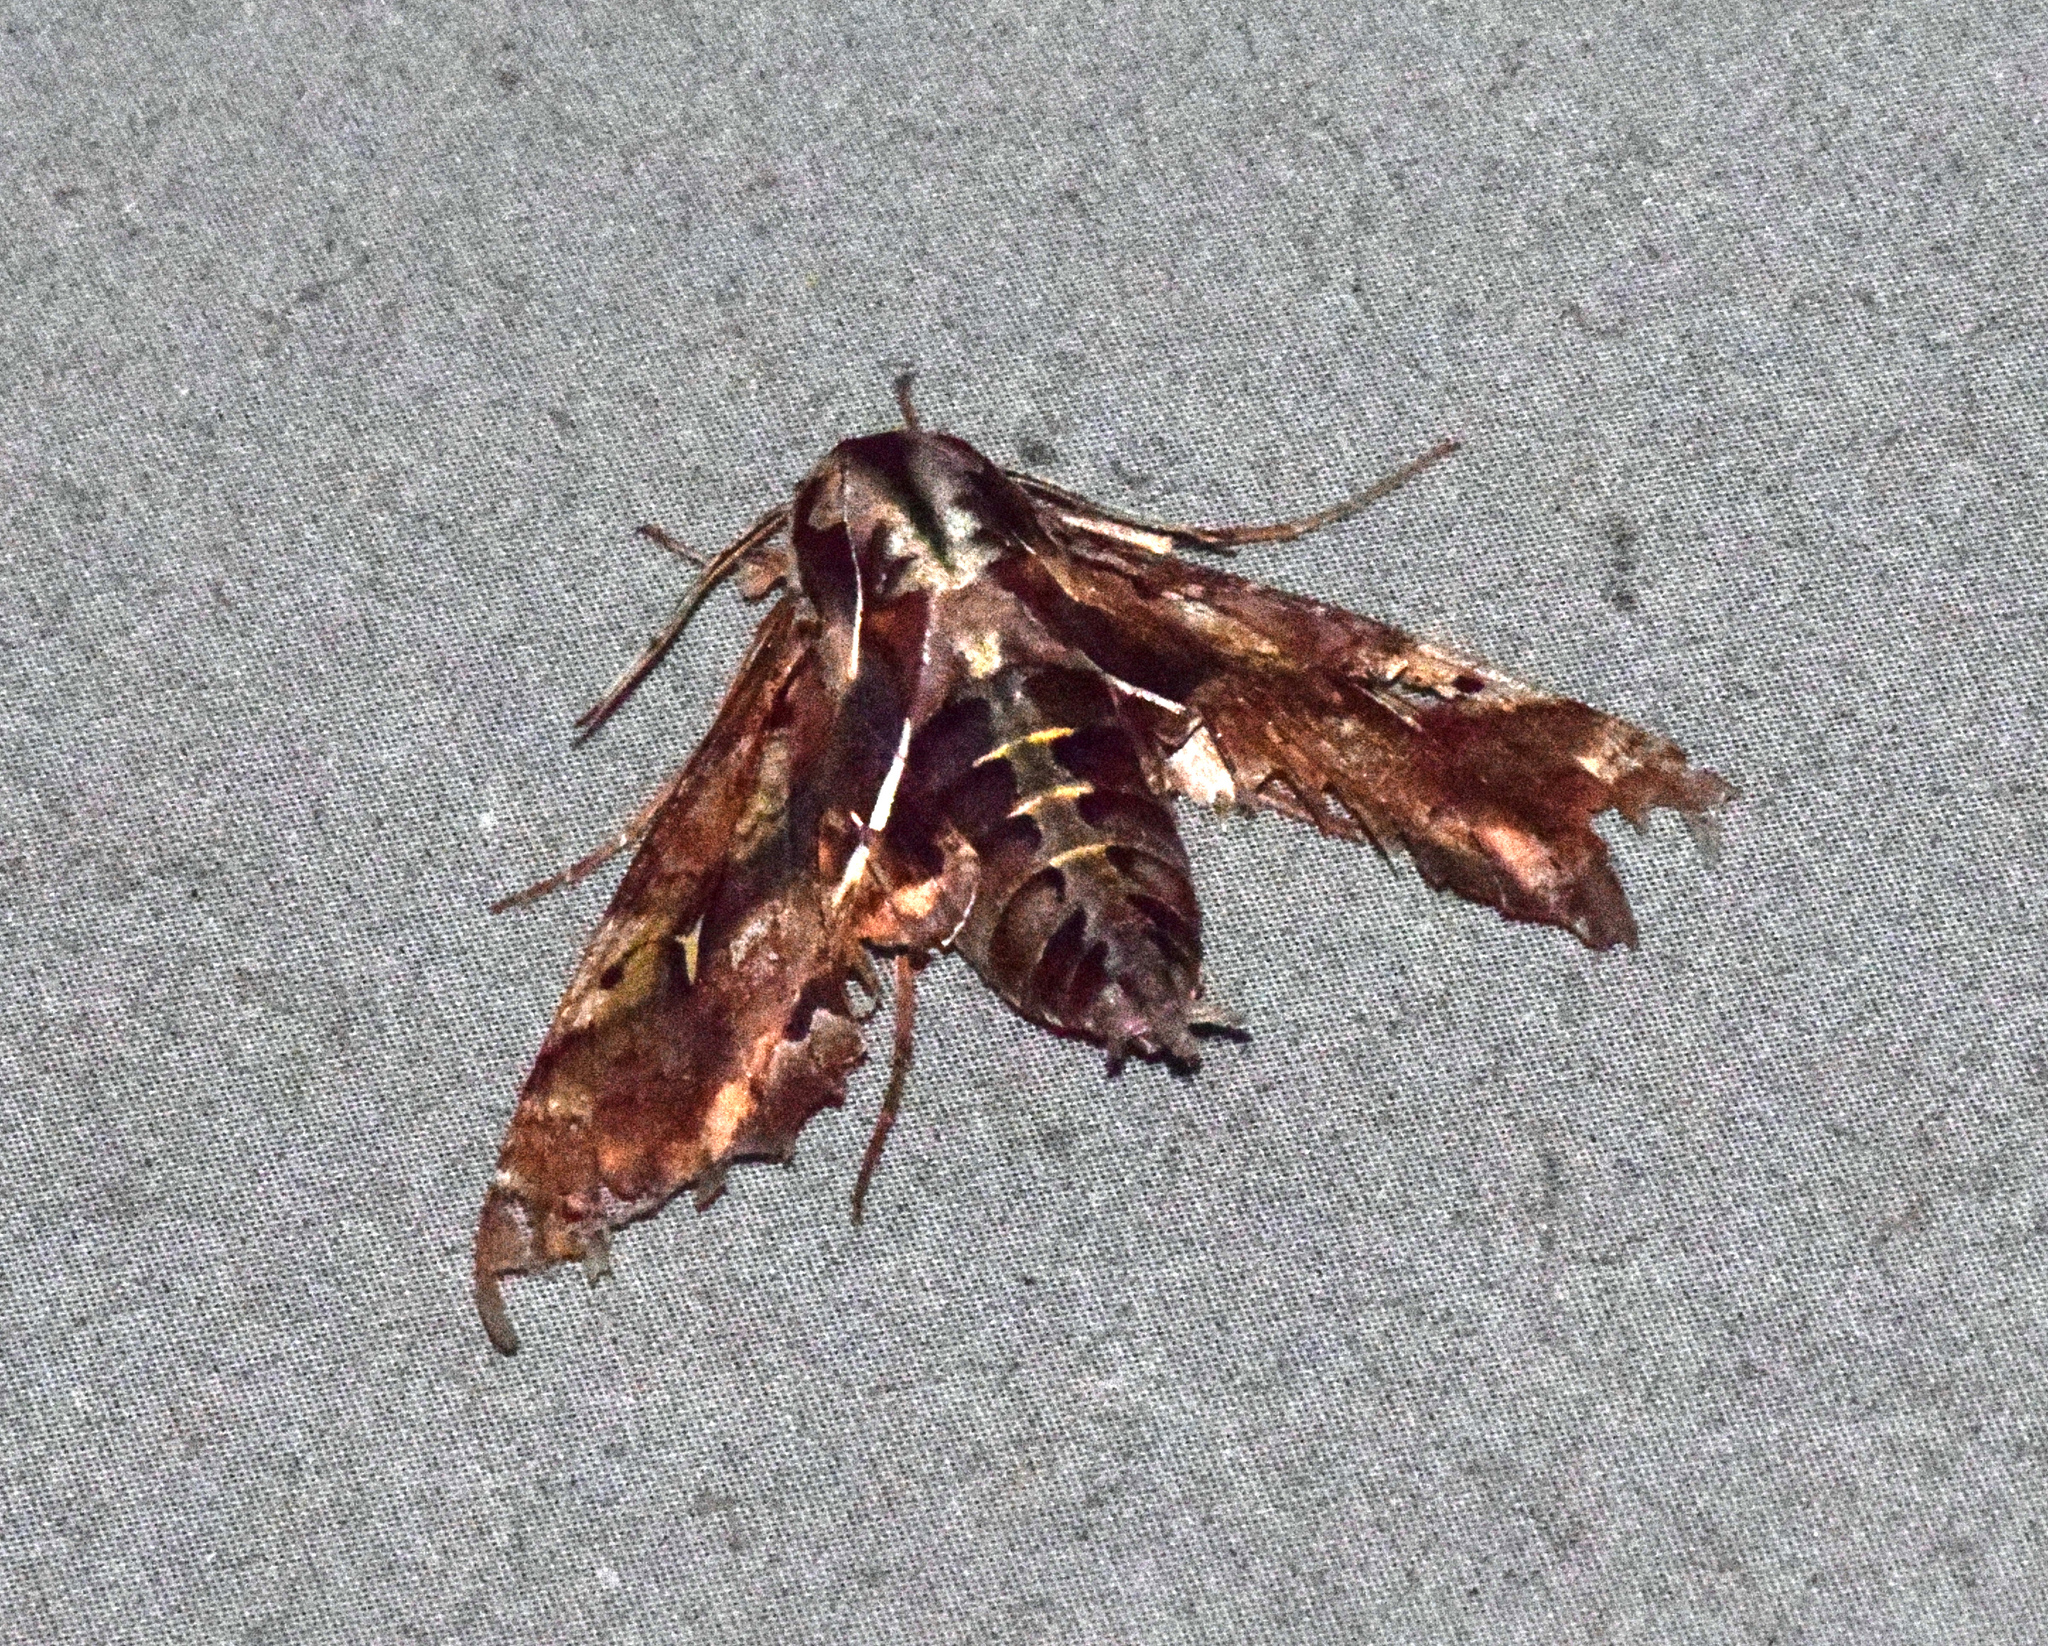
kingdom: Animalia
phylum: Arthropoda
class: Insecta
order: Lepidoptera
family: Sphingidae
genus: Hemeroplanes
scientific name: Hemeroplanes ornatus
